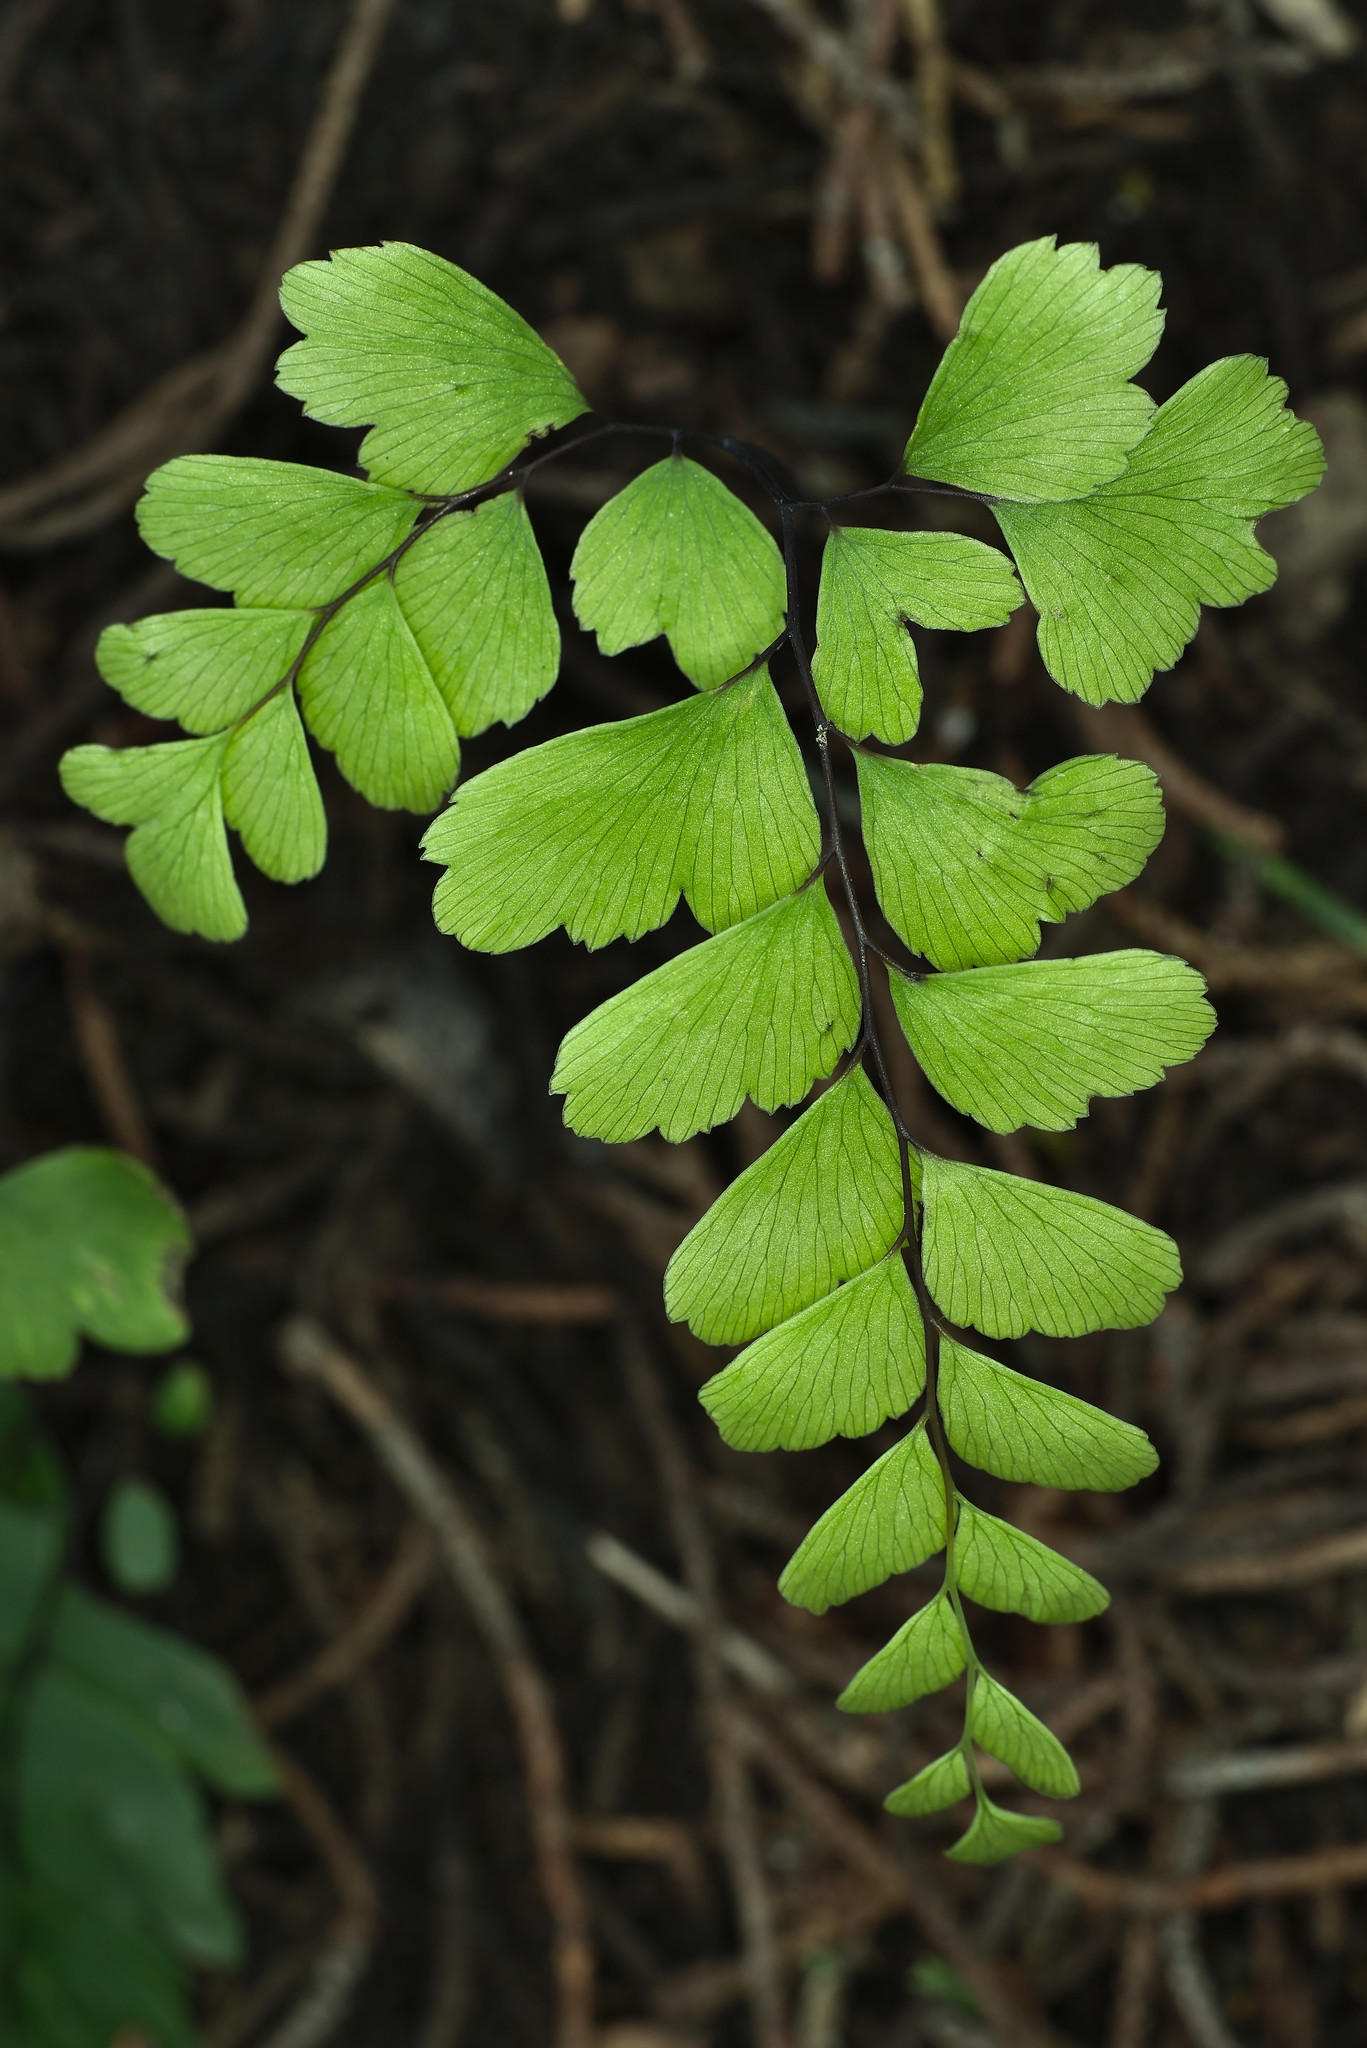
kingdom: Plantae
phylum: Tracheophyta
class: Polypodiopsida
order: Polypodiales
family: Pteridaceae
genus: Adiantum
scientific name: Adiantum cunninghamii
